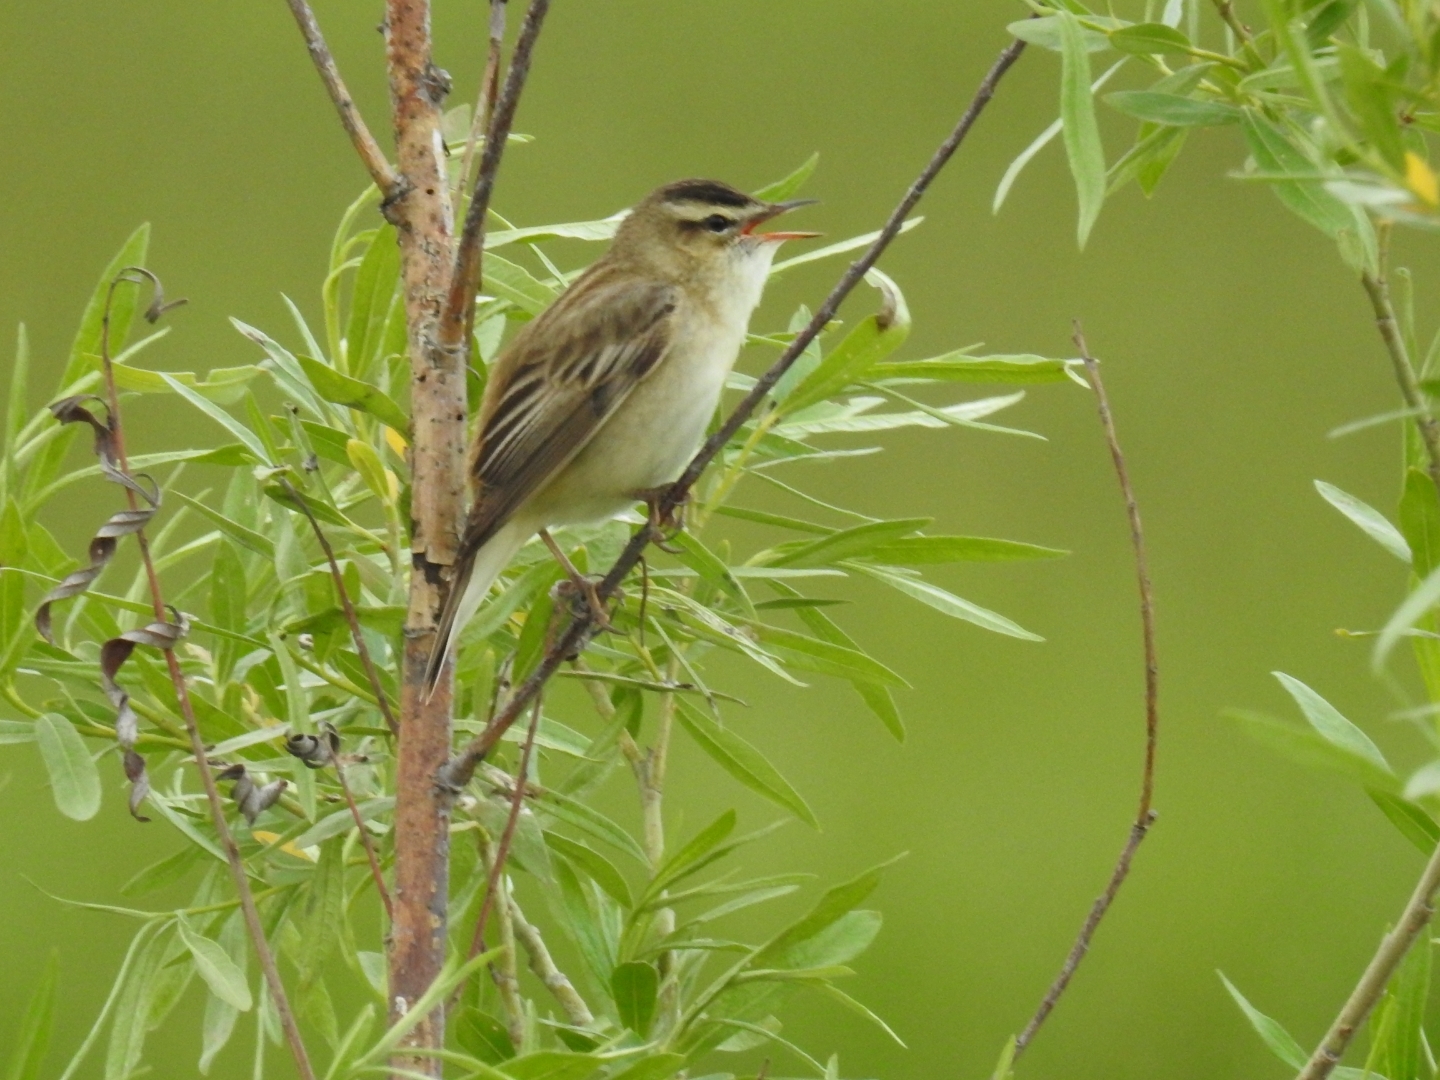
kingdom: Animalia
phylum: Chordata
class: Aves
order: Passeriformes
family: Acrocephalidae
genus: Acrocephalus
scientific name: Acrocephalus schoenobaenus
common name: Sedge warbler
